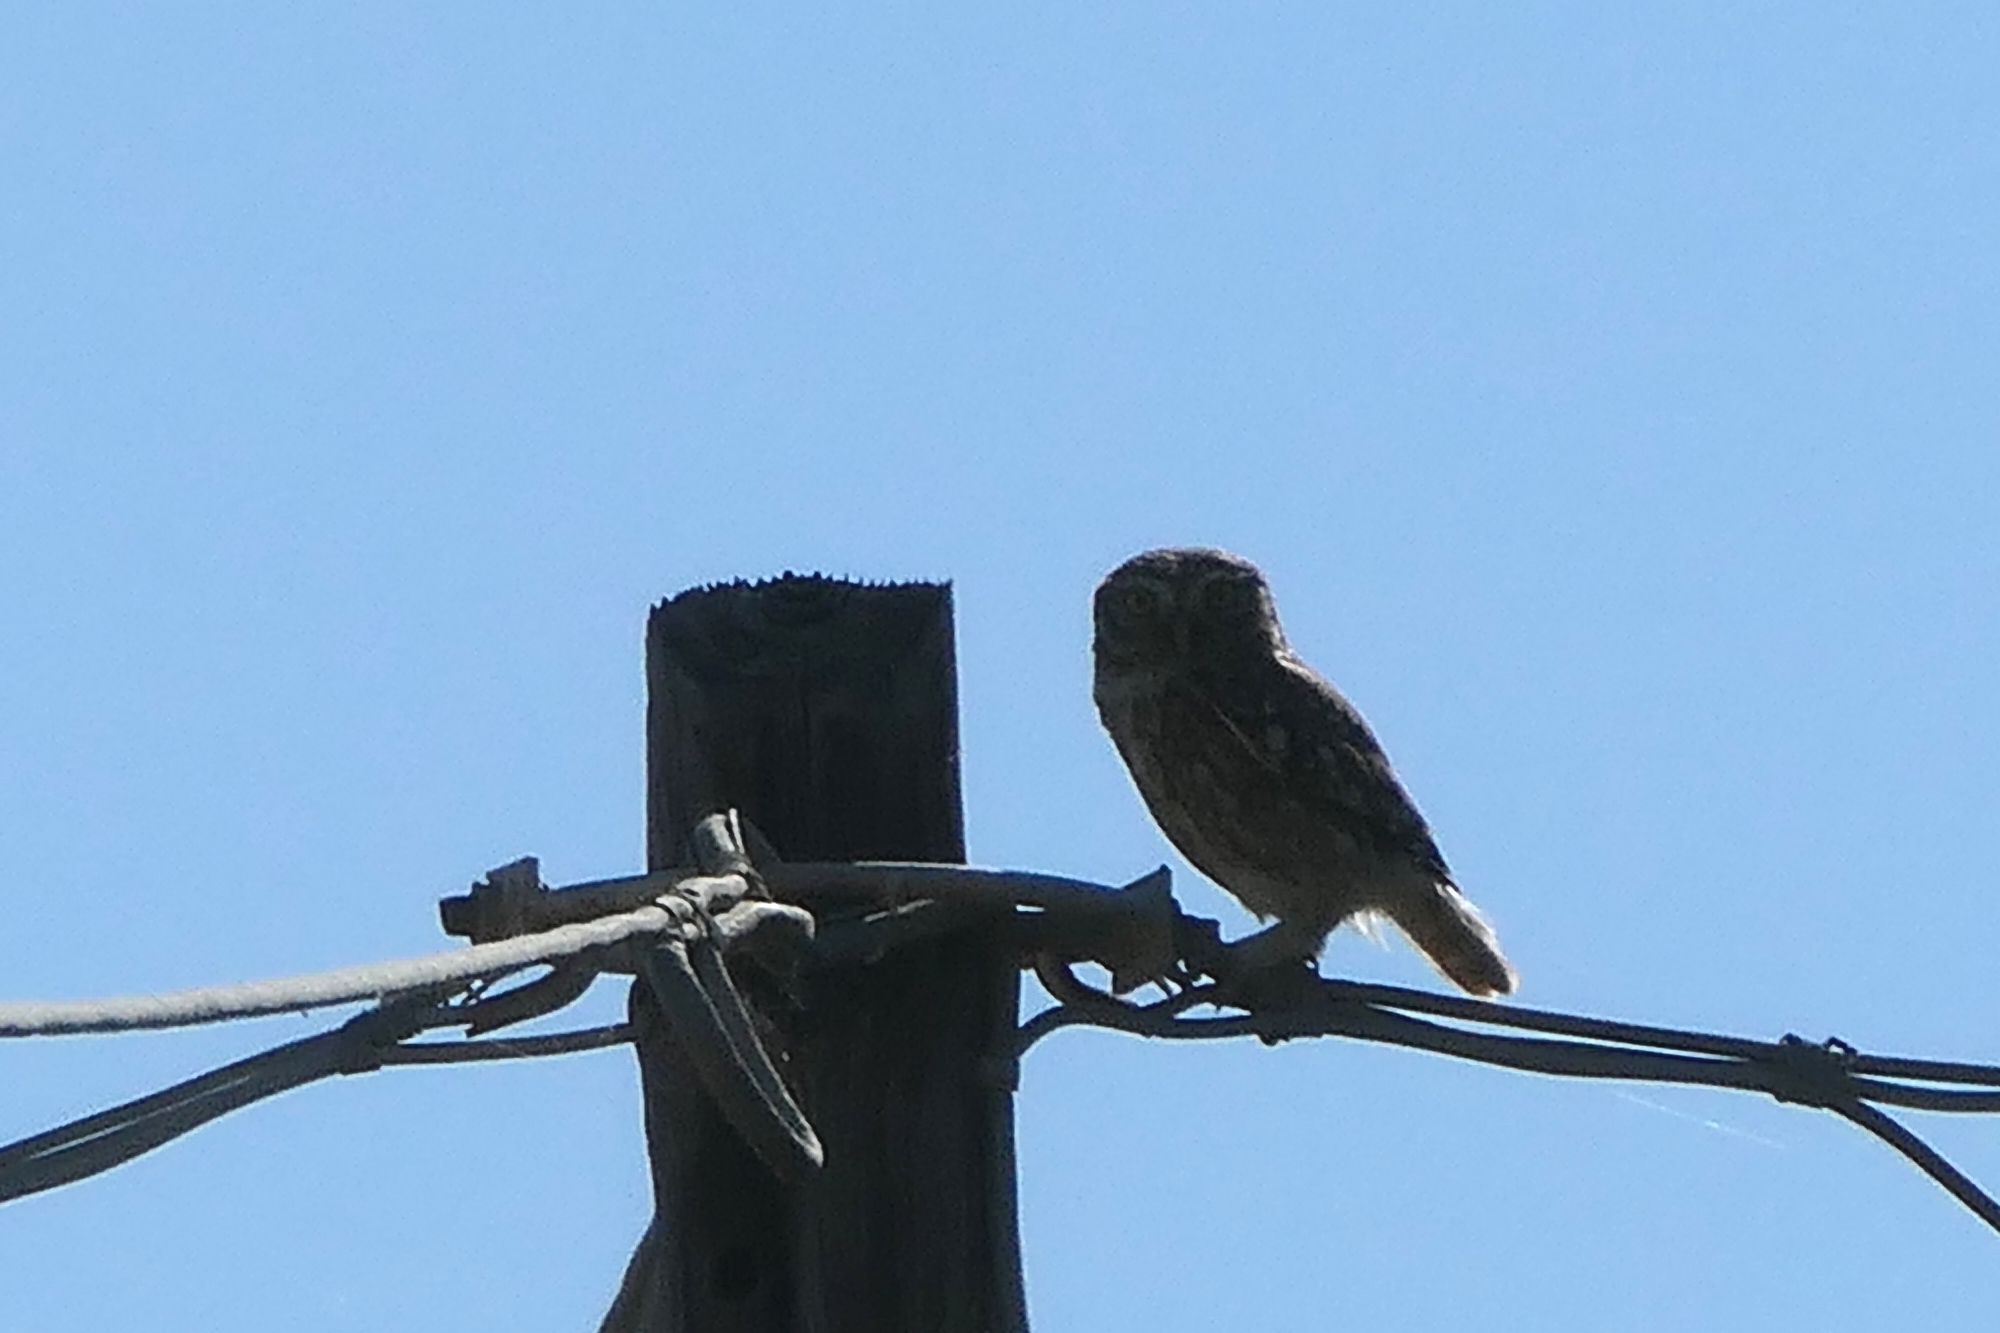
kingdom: Animalia
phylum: Chordata
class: Aves
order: Strigiformes
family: Strigidae
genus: Athene
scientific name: Athene noctua
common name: Little owl
